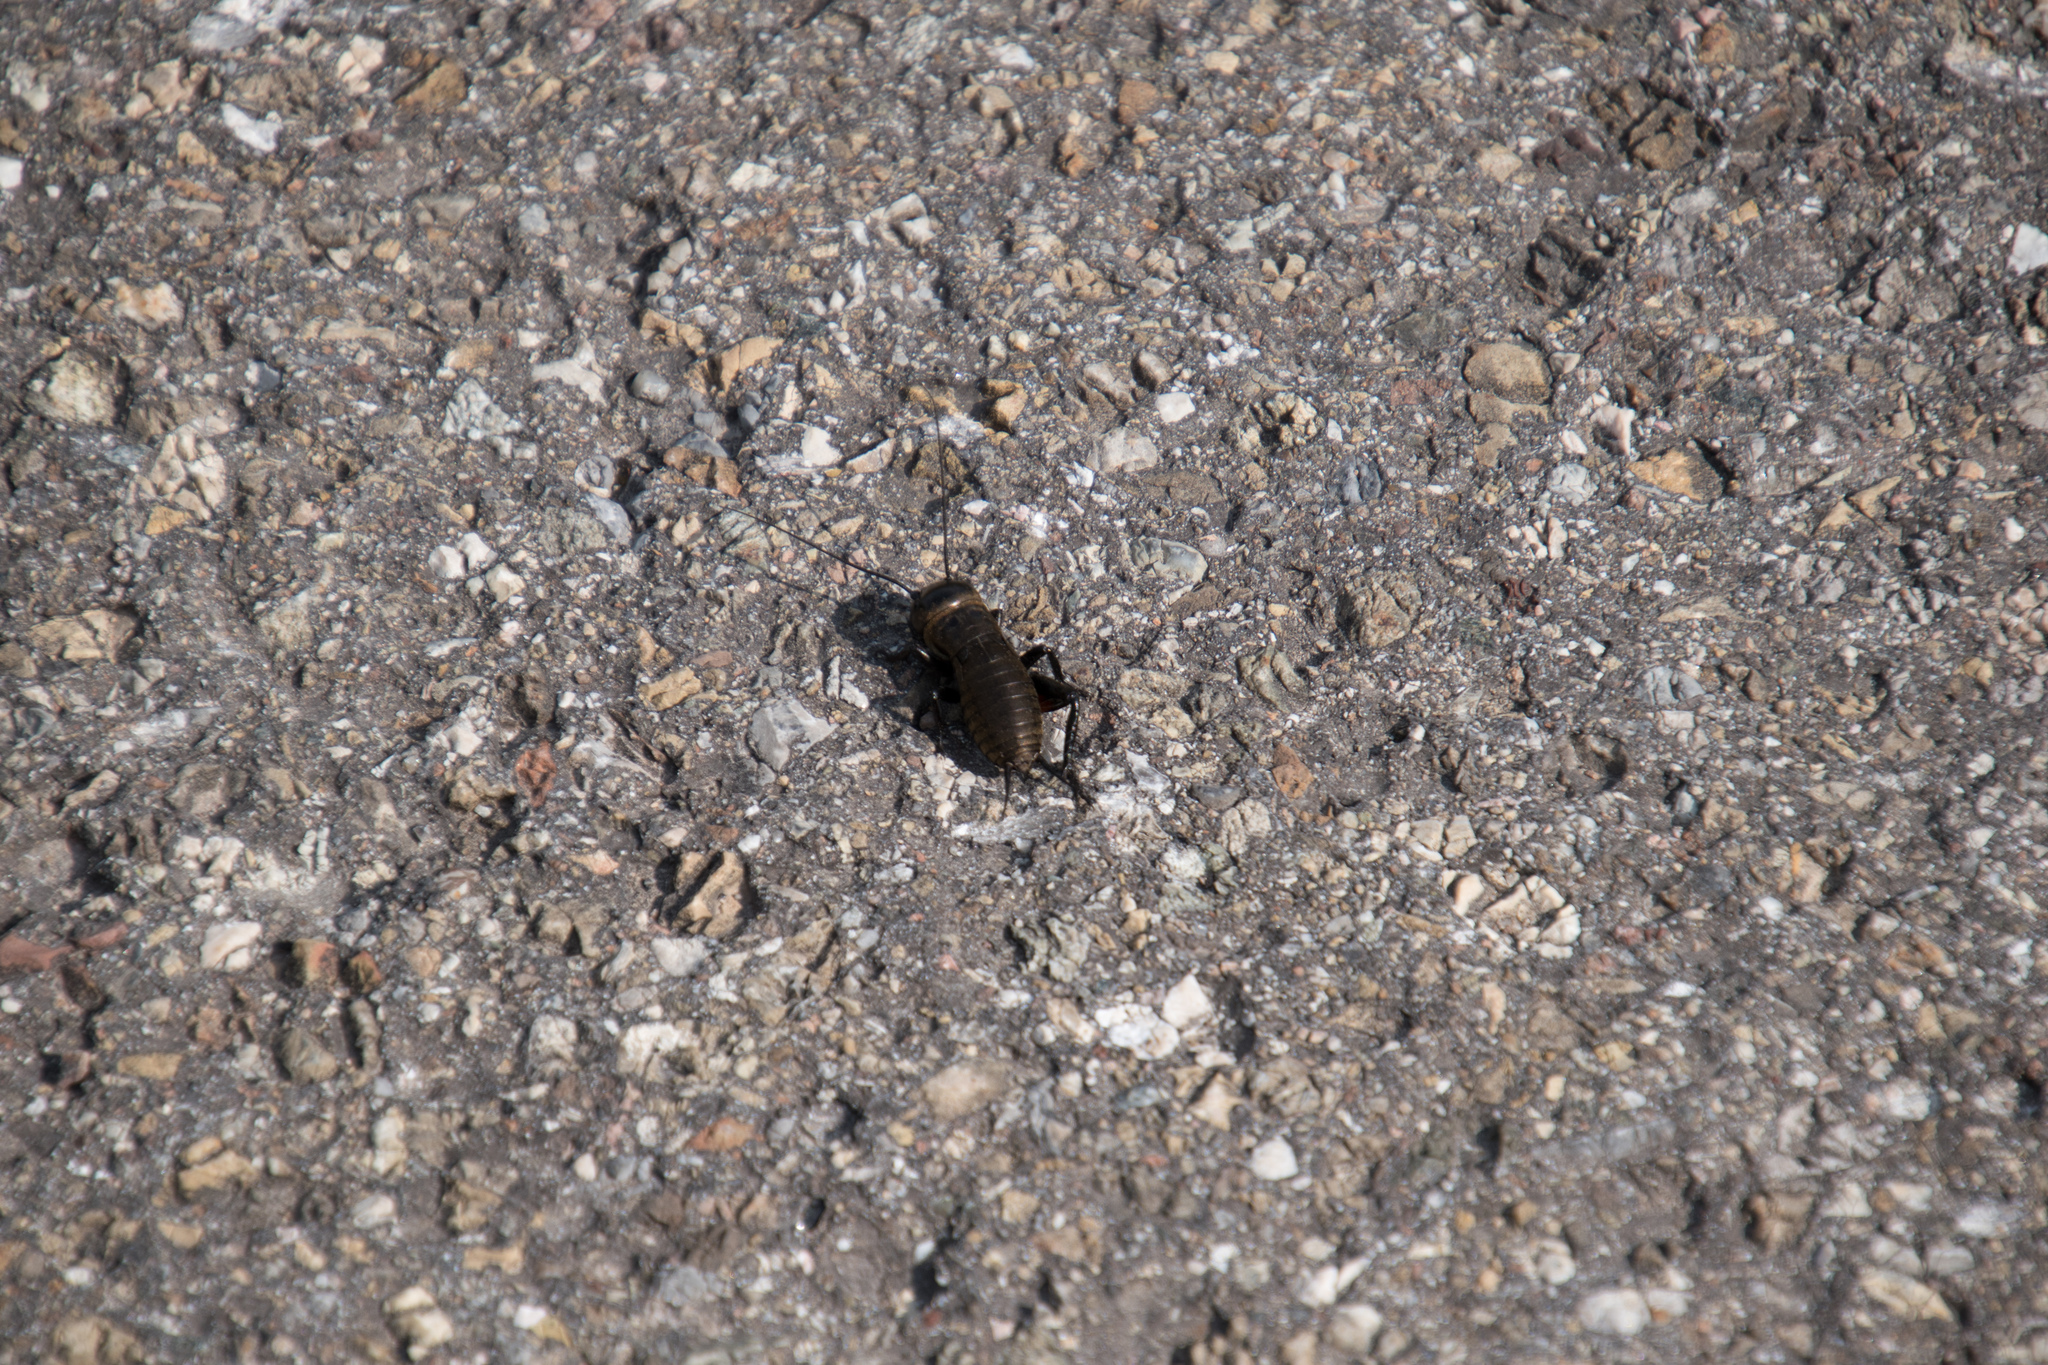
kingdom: Animalia
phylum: Arthropoda
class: Insecta
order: Orthoptera
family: Gryllidae
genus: Gryllus
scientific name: Gryllus campestris
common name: Field cricket
